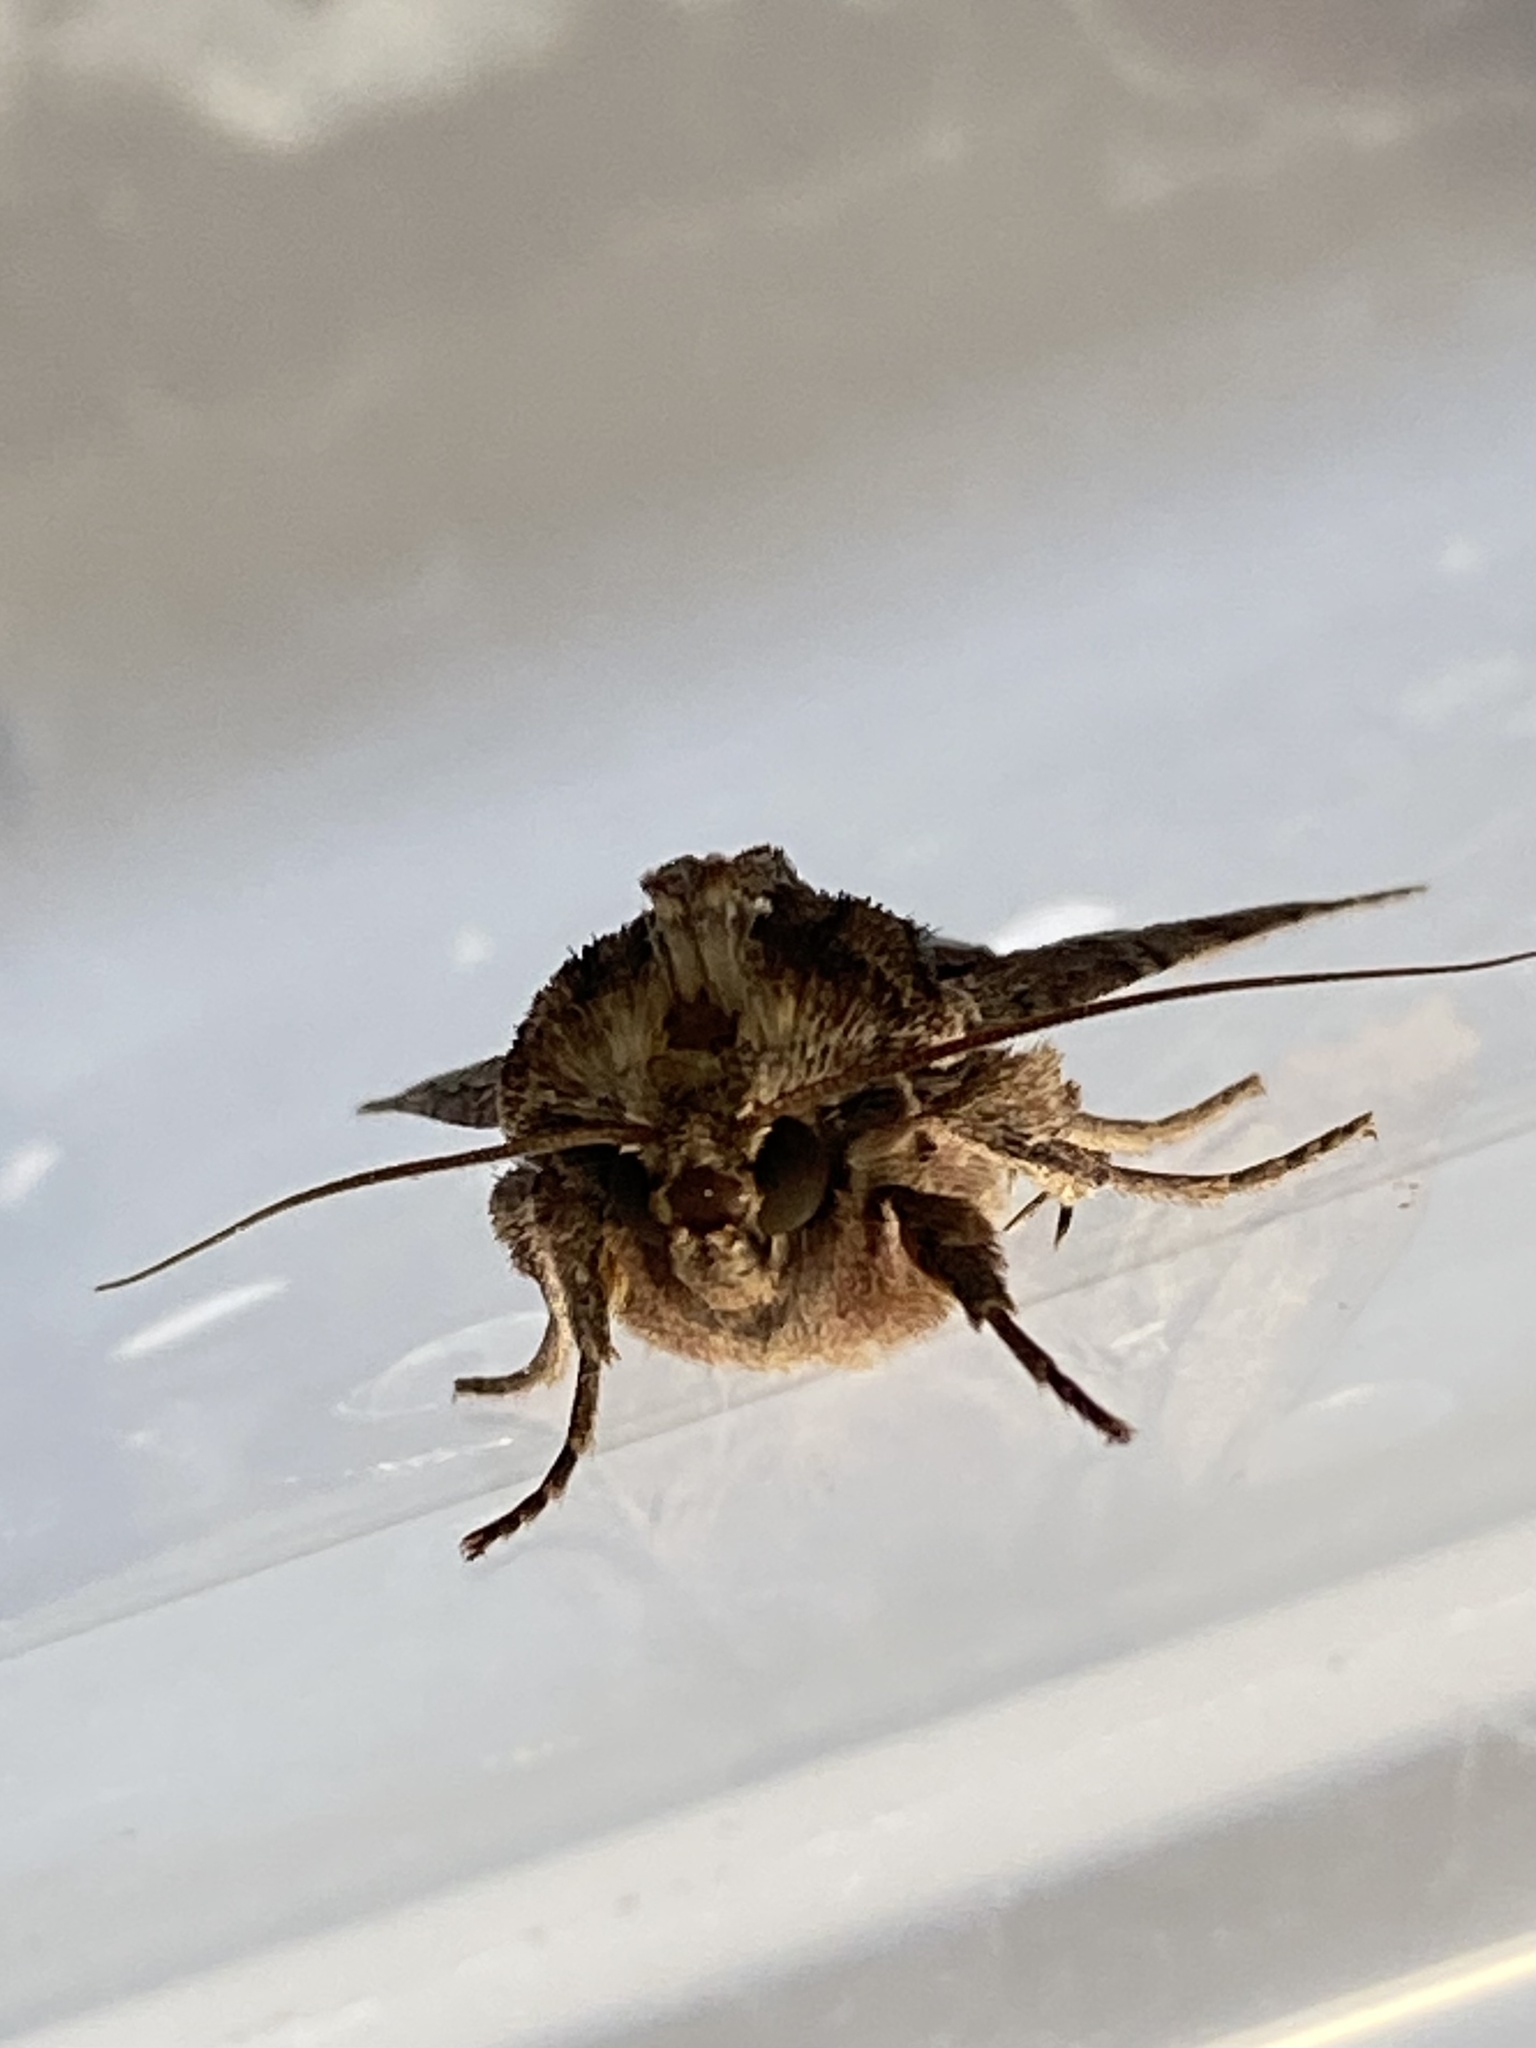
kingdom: Animalia
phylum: Arthropoda
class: Insecta
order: Lepidoptera
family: Noctuidae
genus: Apamea
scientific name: Apamea monoglypha
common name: Dark arches
